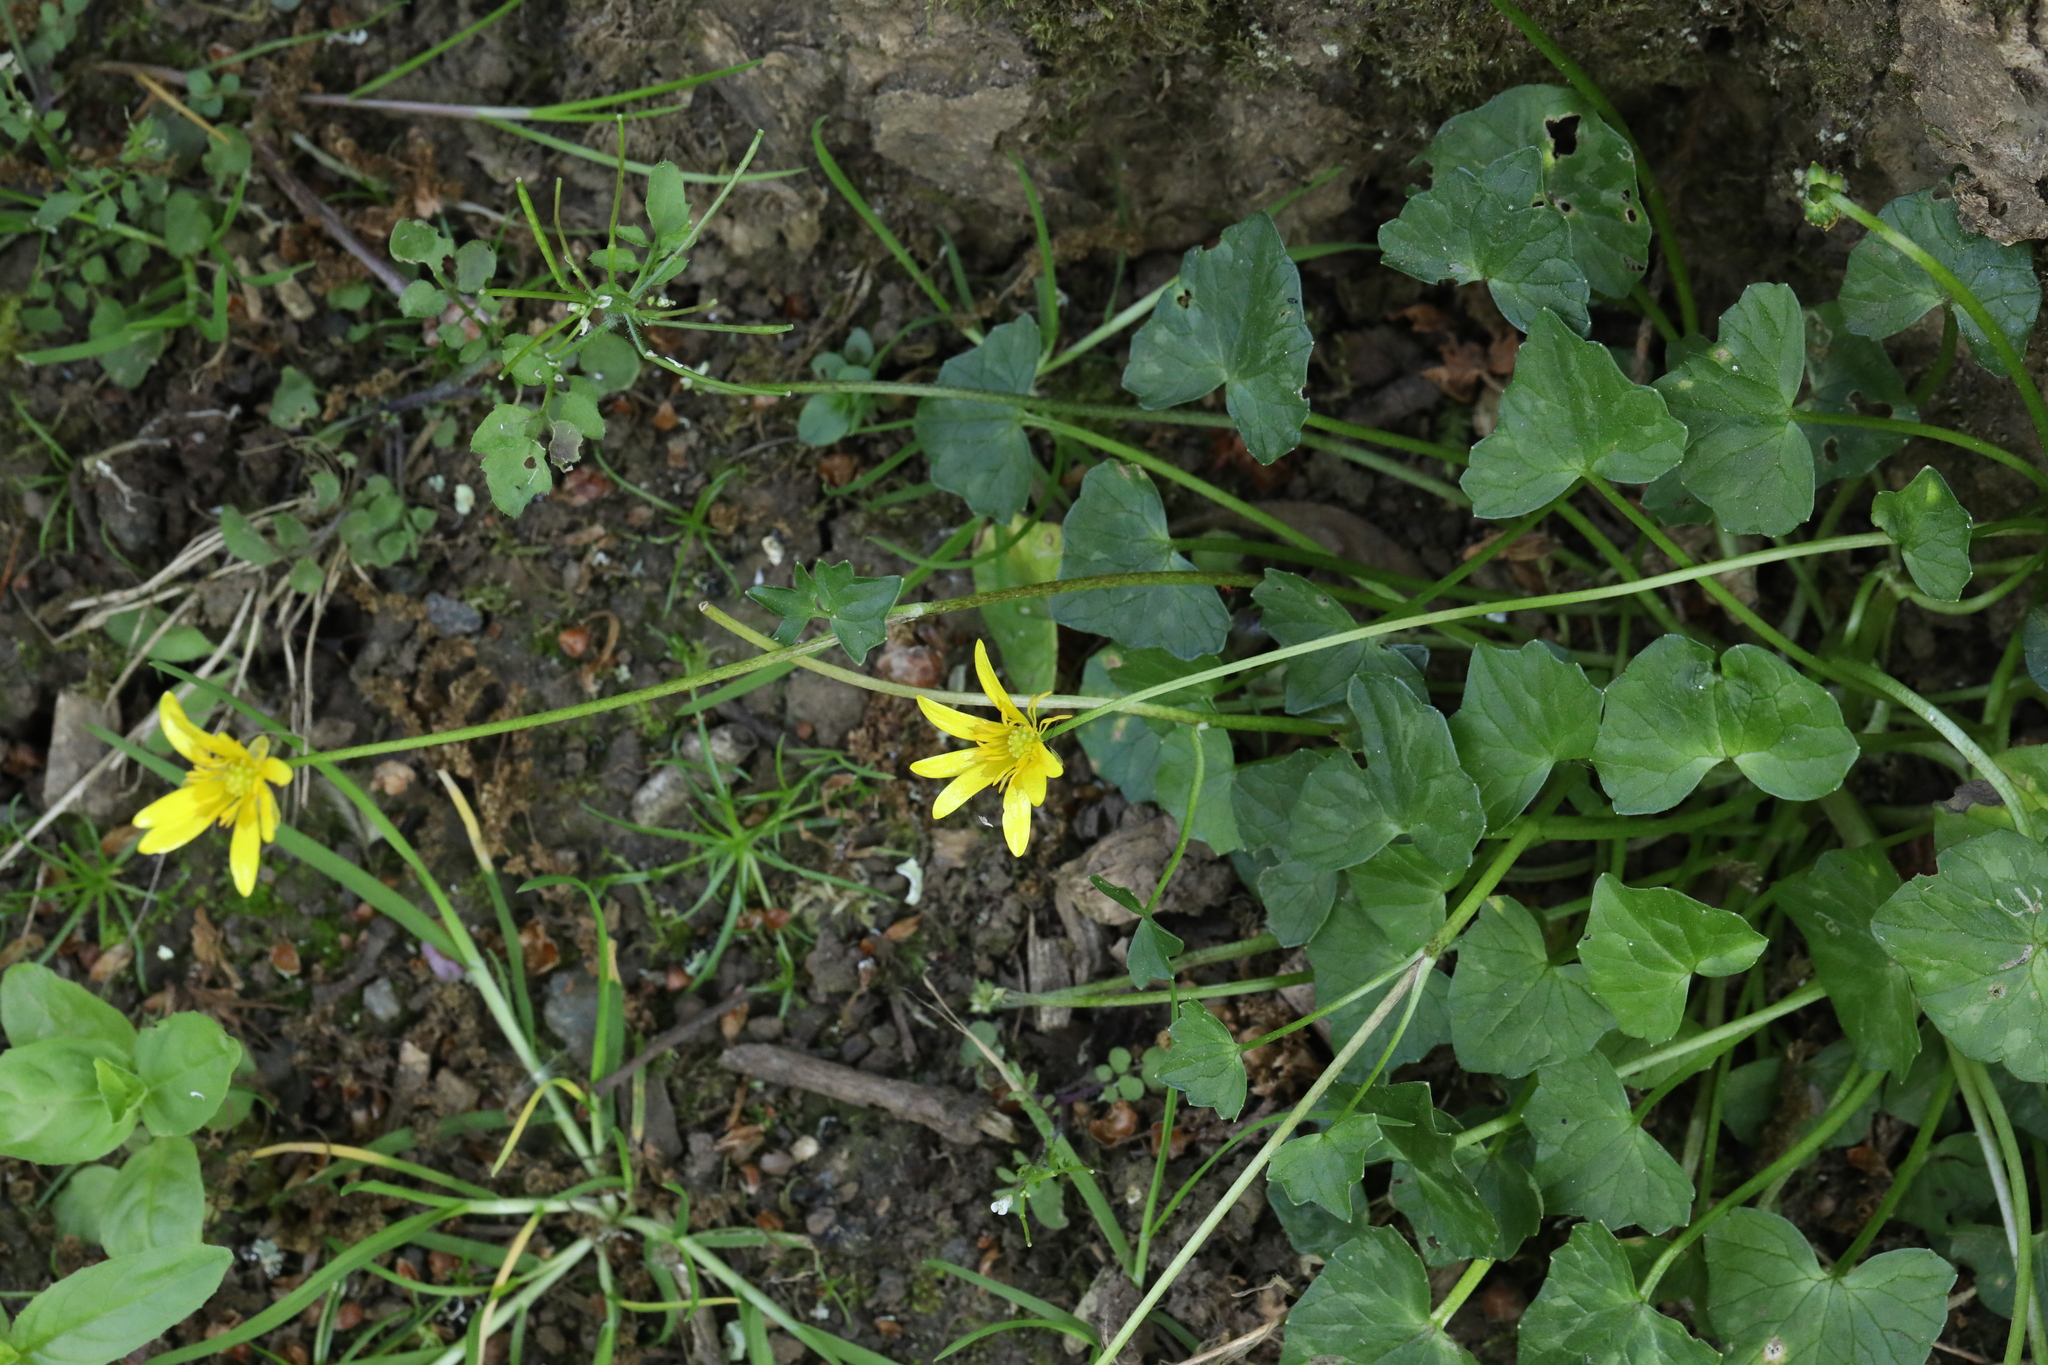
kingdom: Plantae
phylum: Tracheophyta
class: Magnoliopsida
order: Ranunculales
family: Ranunculaceae
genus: Ficaria
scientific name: Ficaria verna
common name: Lesser celandine
